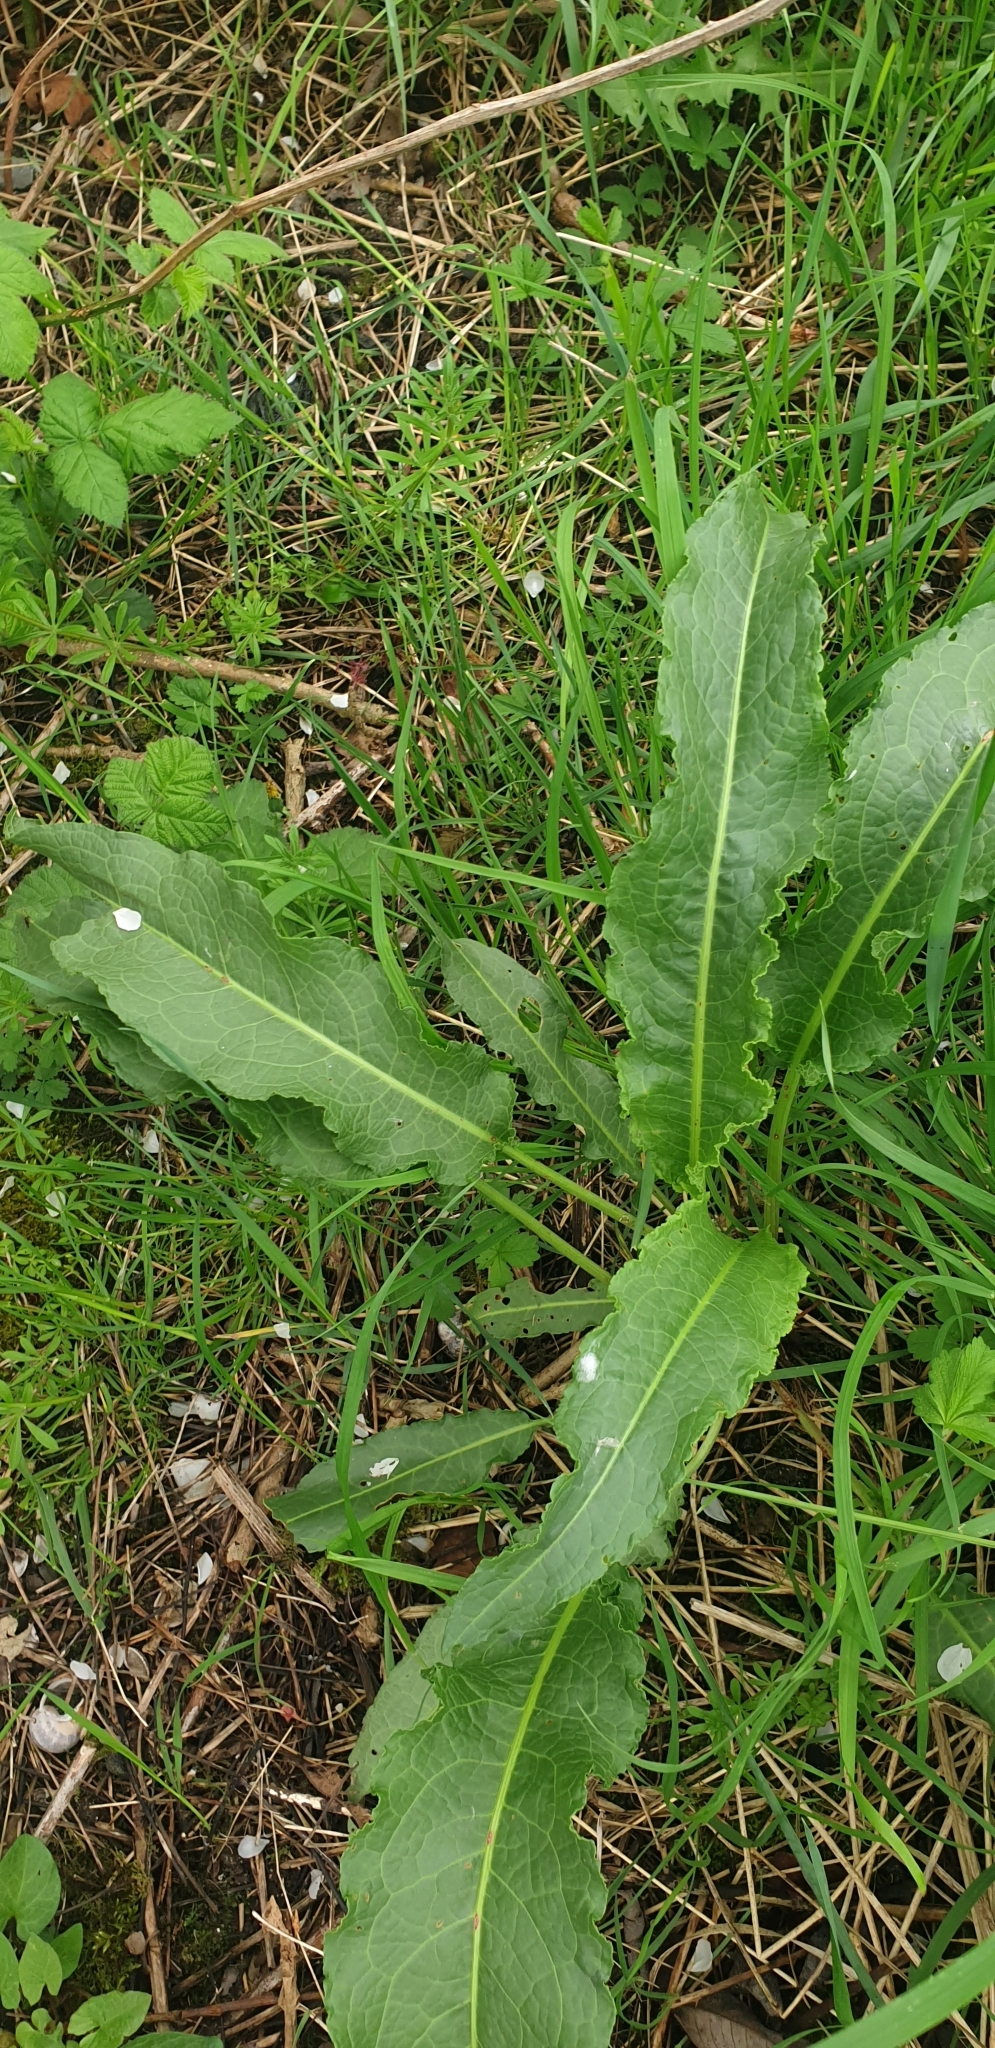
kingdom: Plantae
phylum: Tracheophyta
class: Magnoliopsida
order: Caryophyllales
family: Polygonaceae
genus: Rumex
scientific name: Rumex crispus
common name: Curled dock
